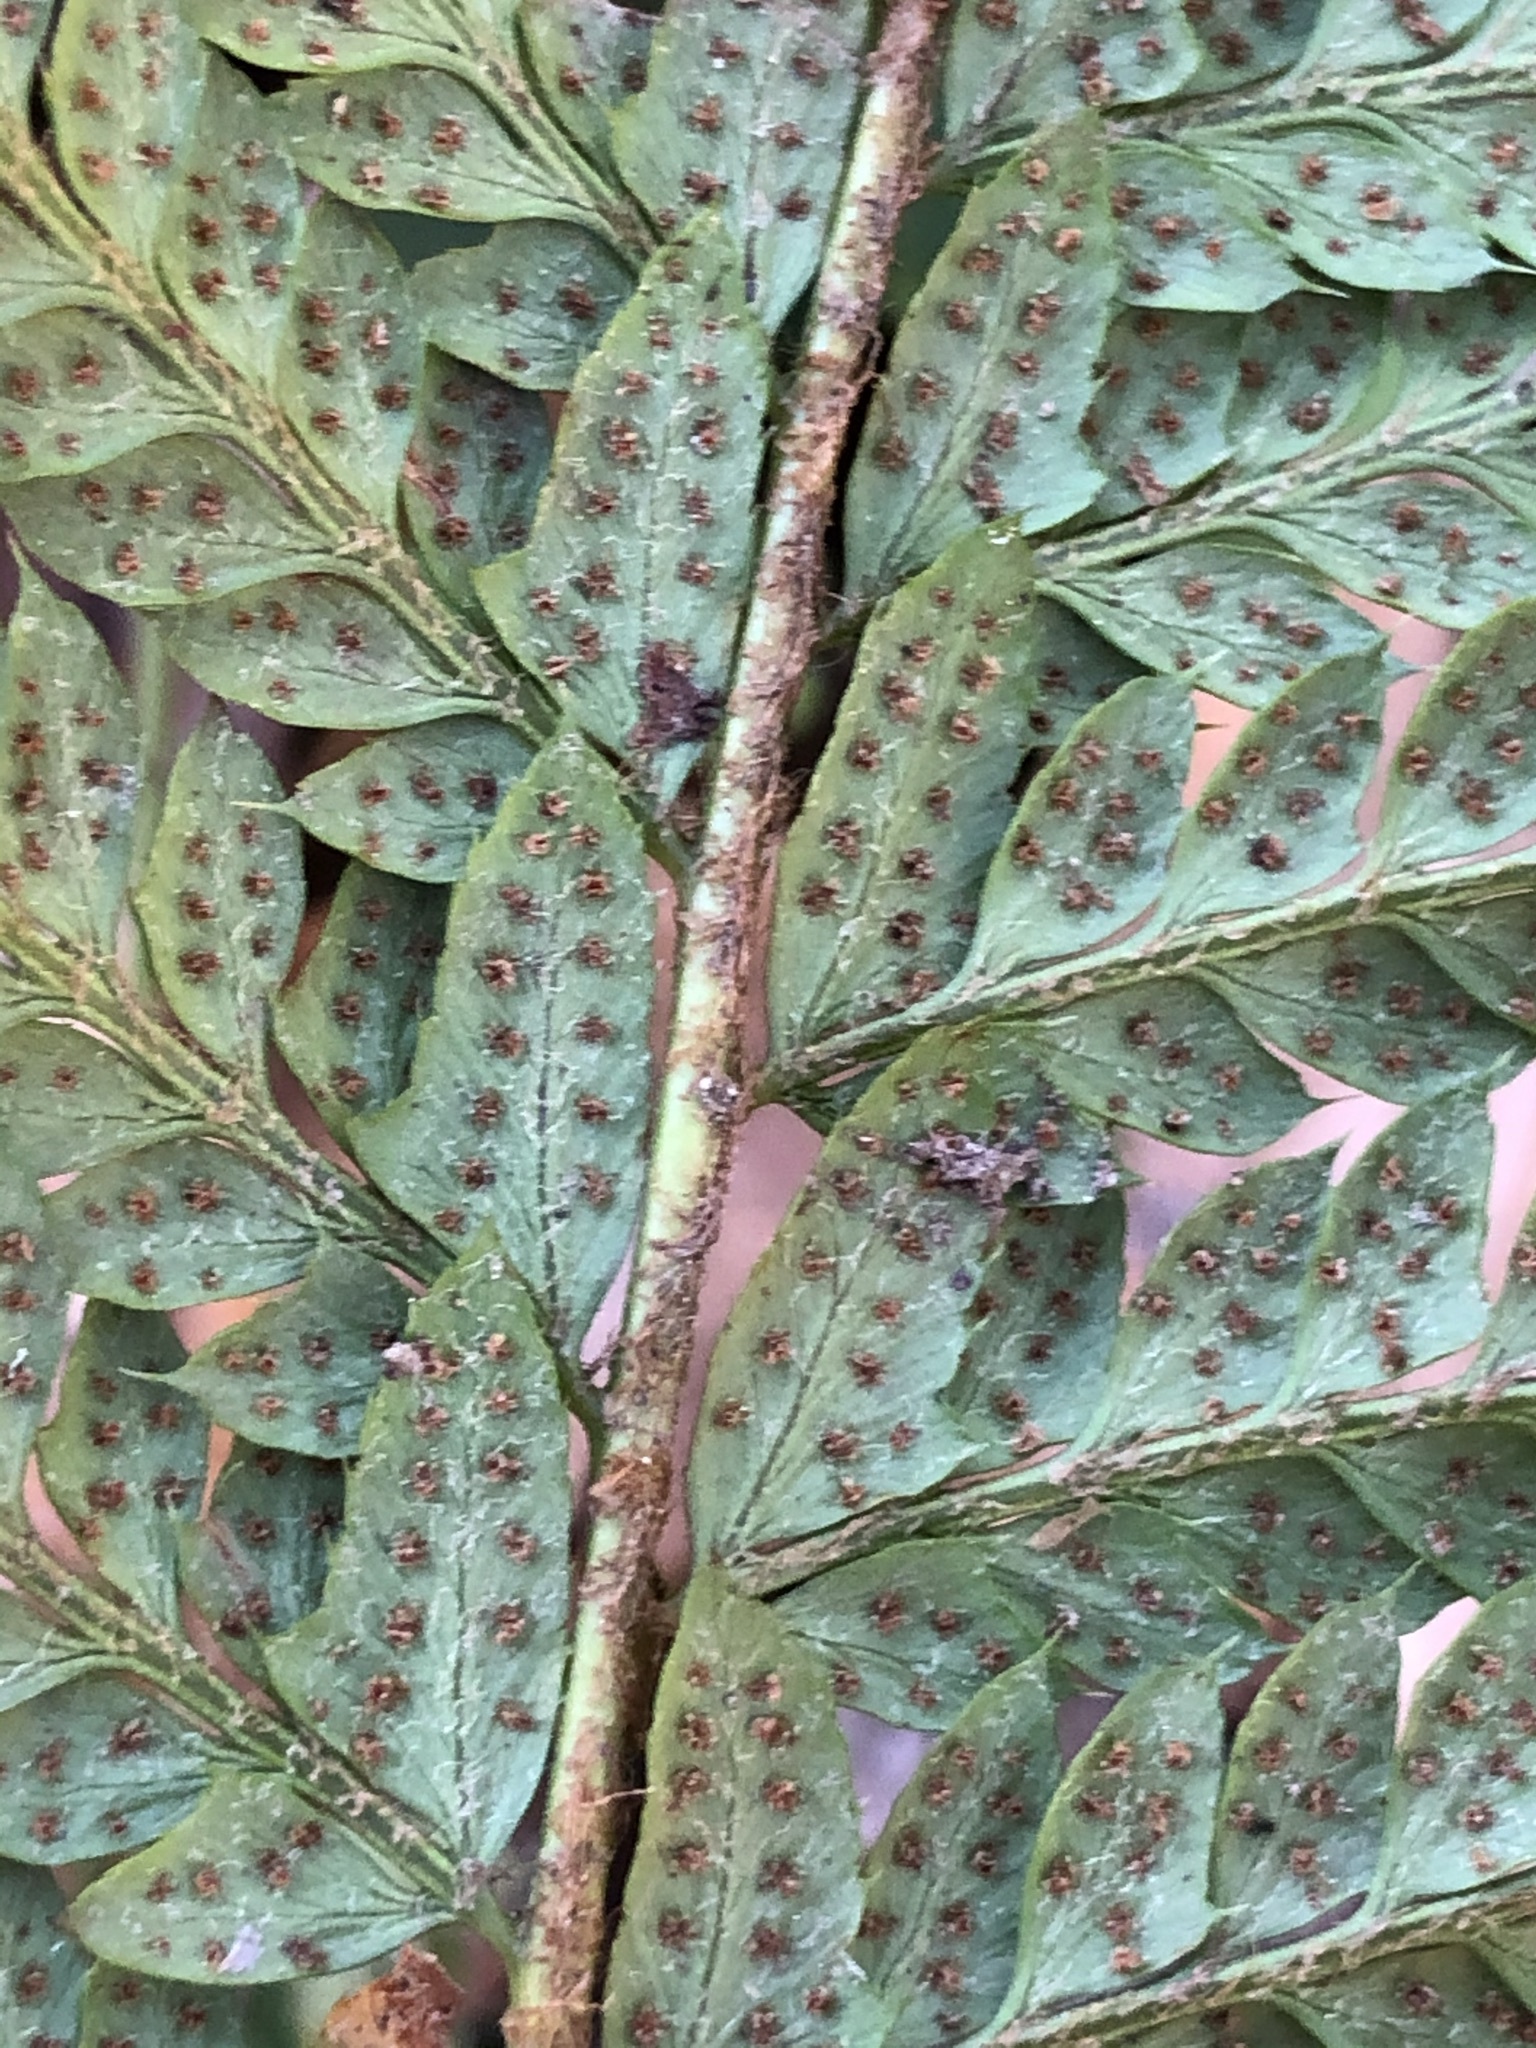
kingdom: Plantae
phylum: Tracheophyta
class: Polypodiopsida
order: Polypodiales
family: Dryopteridaceae
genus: Polystichum
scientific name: Polystichum aculeatum
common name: Hard shield-fern
